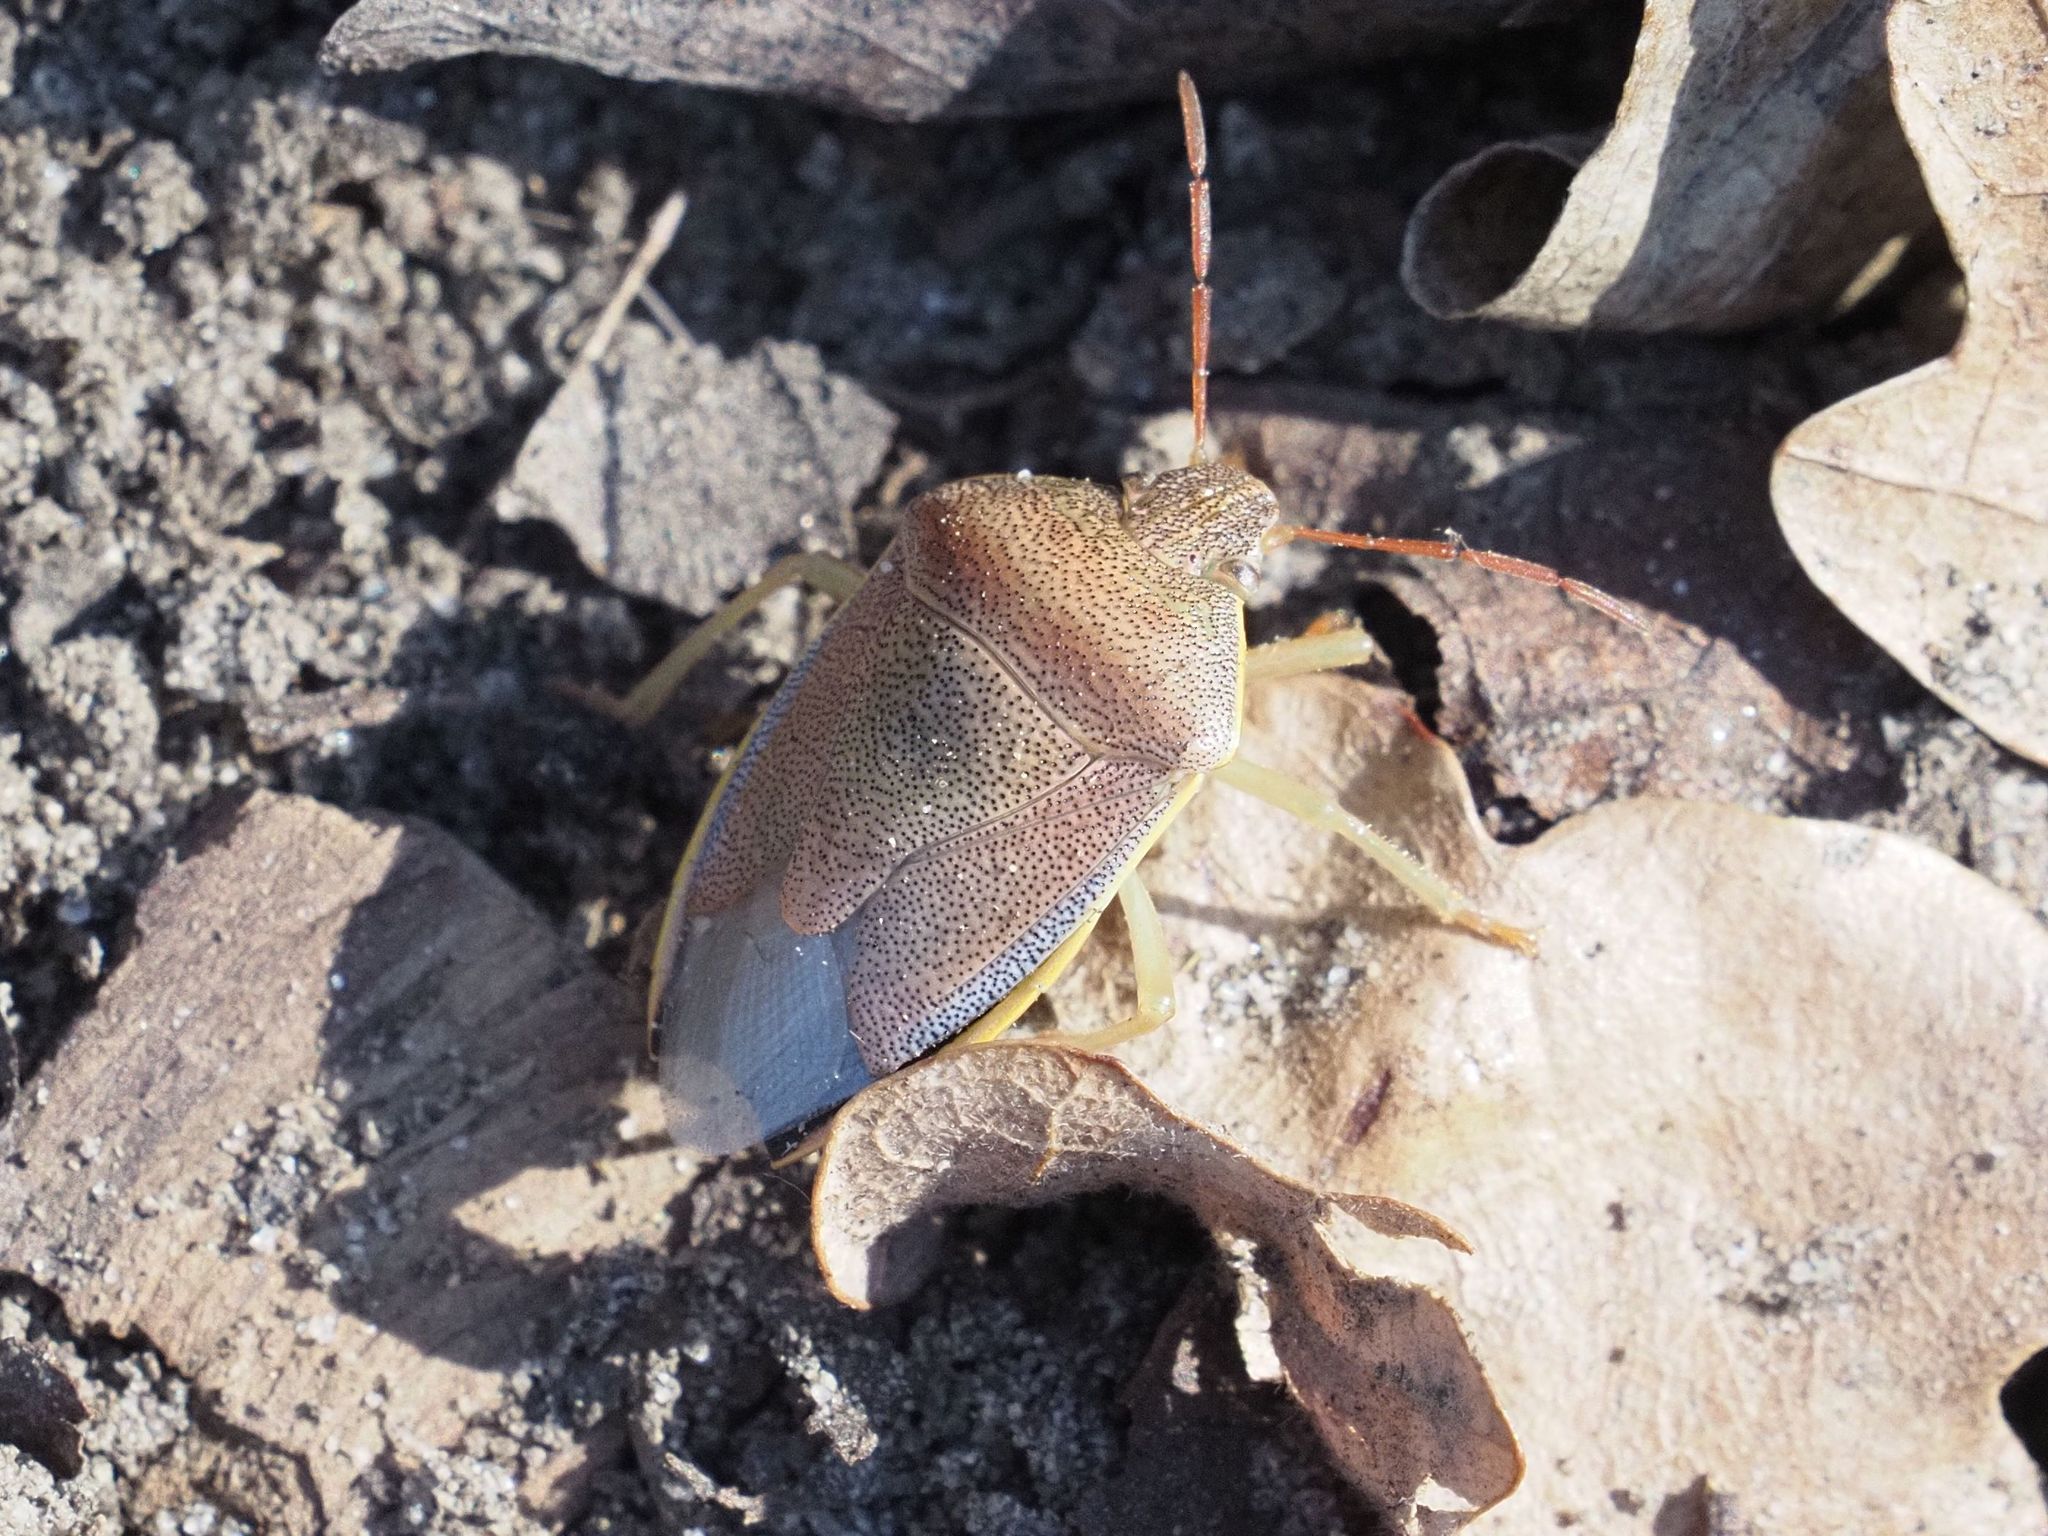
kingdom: Animalia
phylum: Arthropoda
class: Insecta
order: Hemiptera
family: Pentatomidae
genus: Piezodorus
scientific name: Piezodorus lituratus
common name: Stink bug
